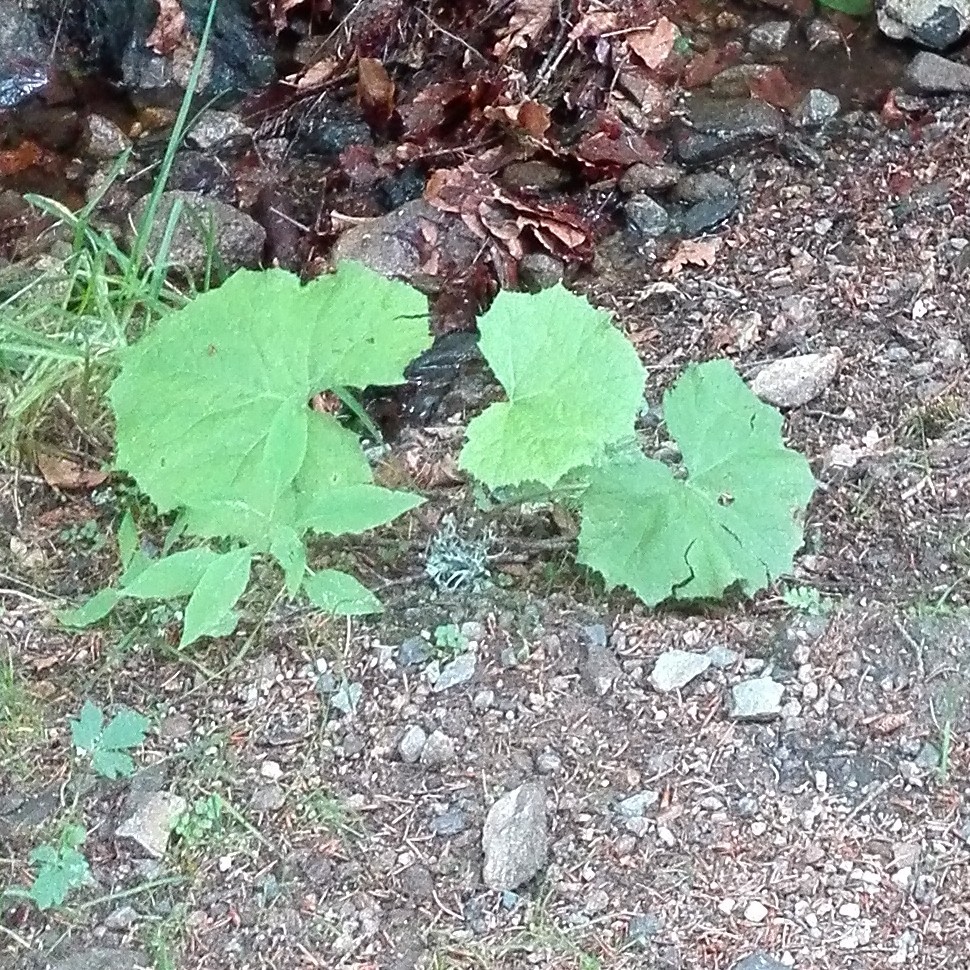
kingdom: Plantae
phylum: Tracheophyta
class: Magnoliopsida
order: Asterales
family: Asteraceae
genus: Petasites
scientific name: Petasites albus
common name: White butterbur
